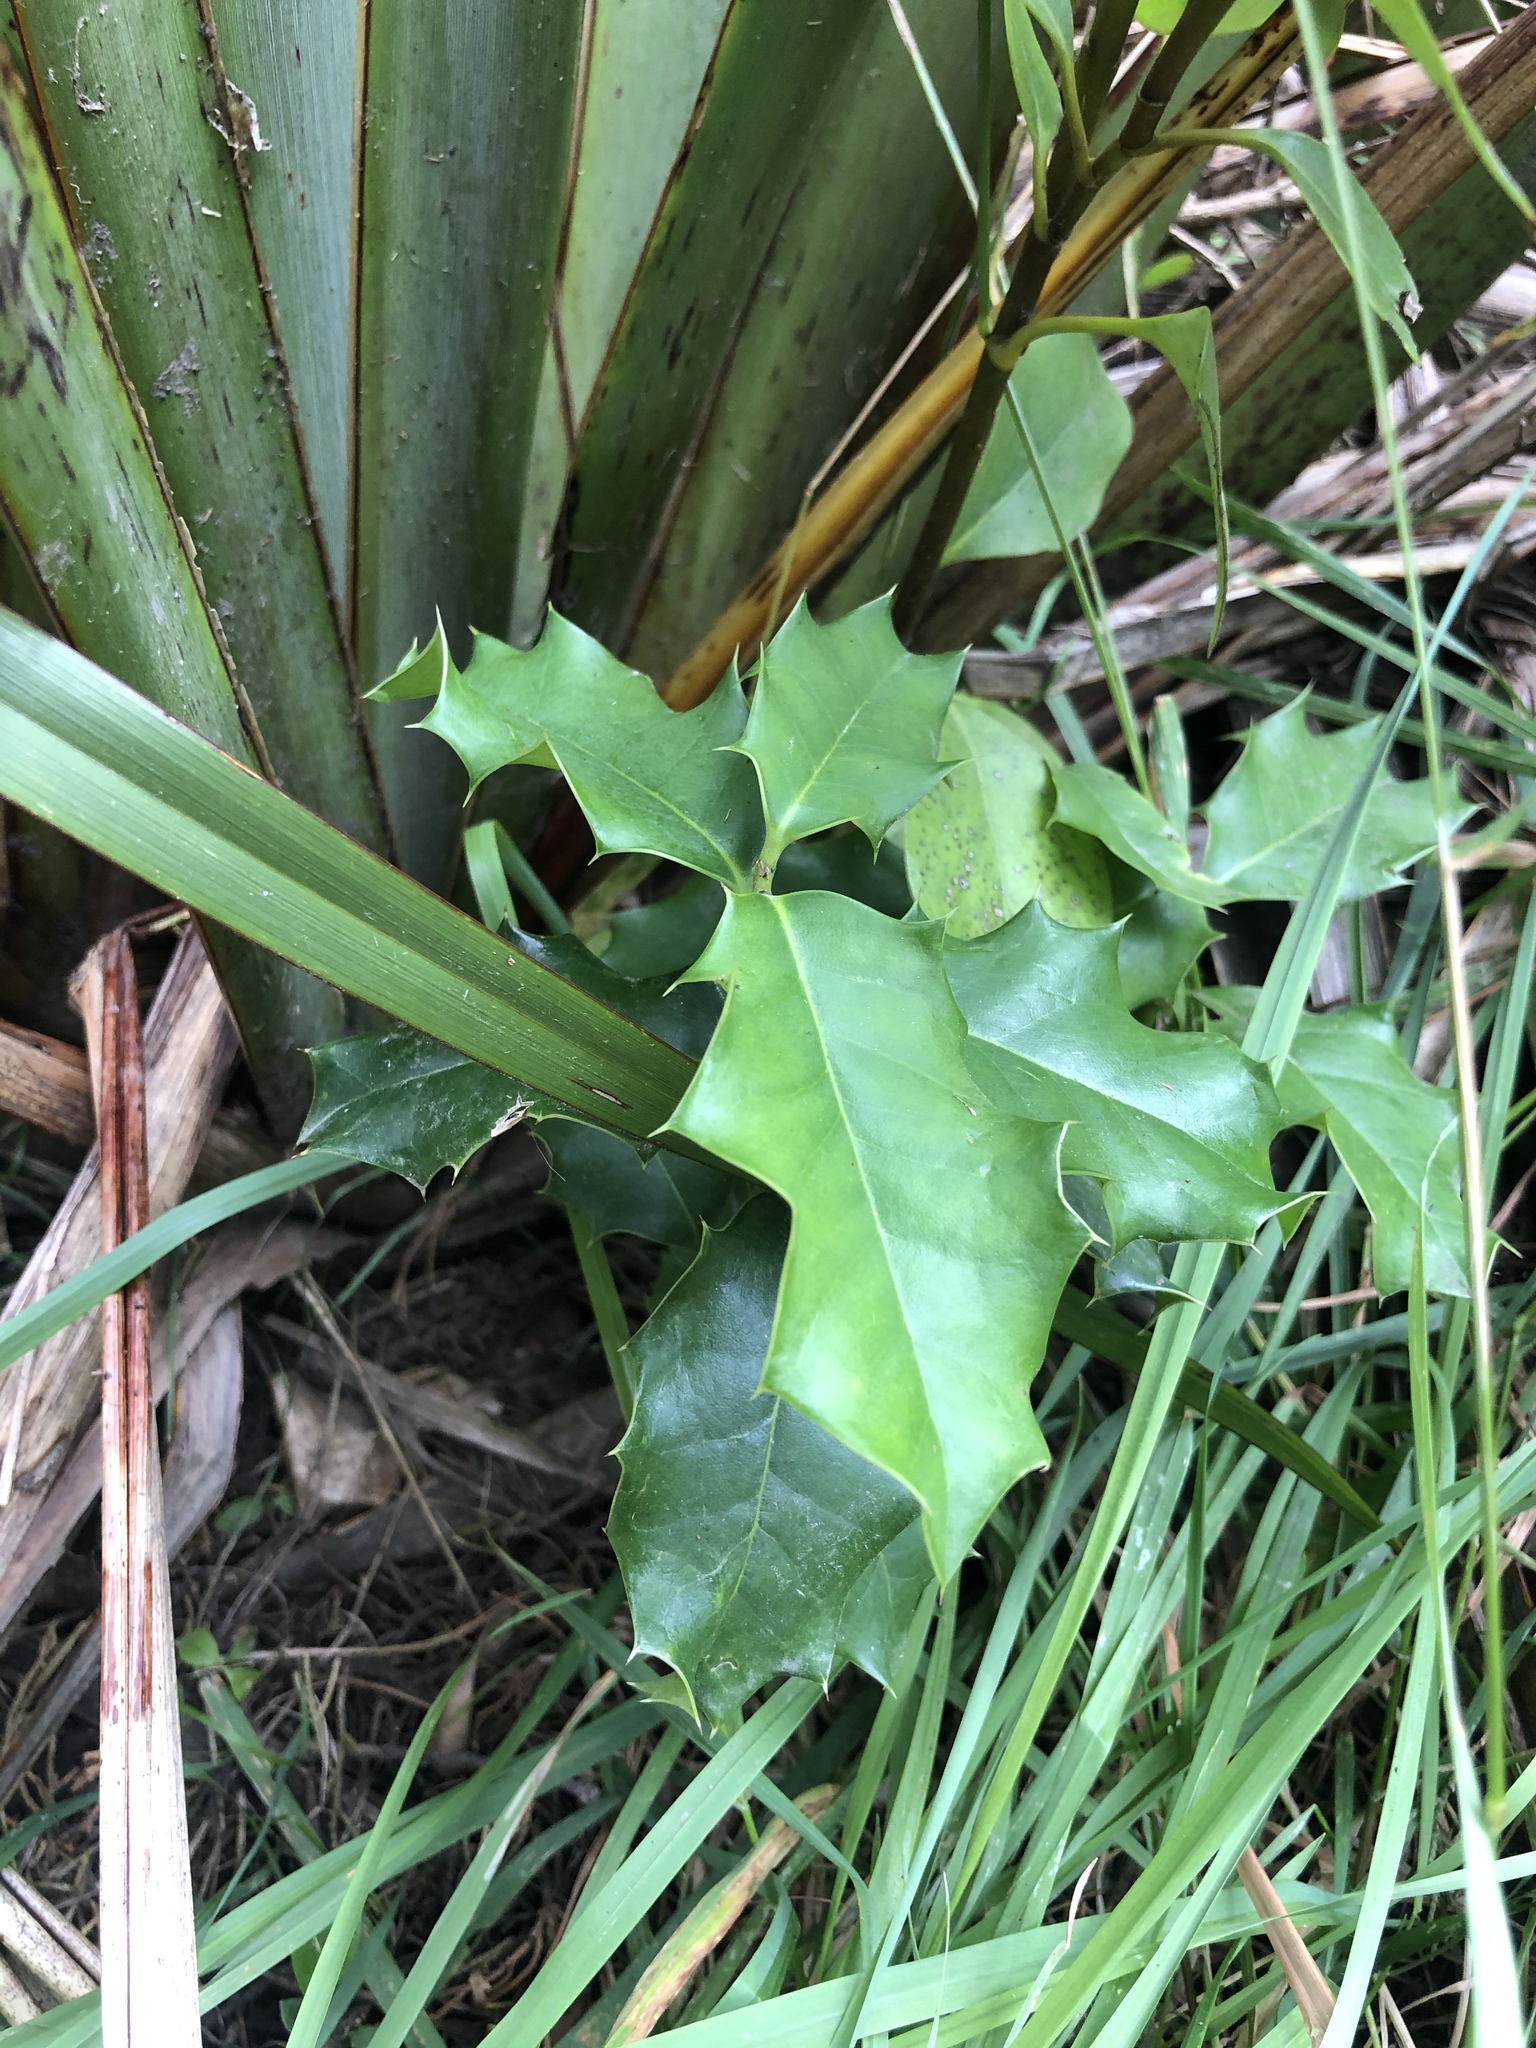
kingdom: Plantae
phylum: Tracheophyta
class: Magnoliopsida
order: Aquifoliales
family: Aquifoliaceae
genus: Ilex
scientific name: Ilex aquifolium
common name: English holly
